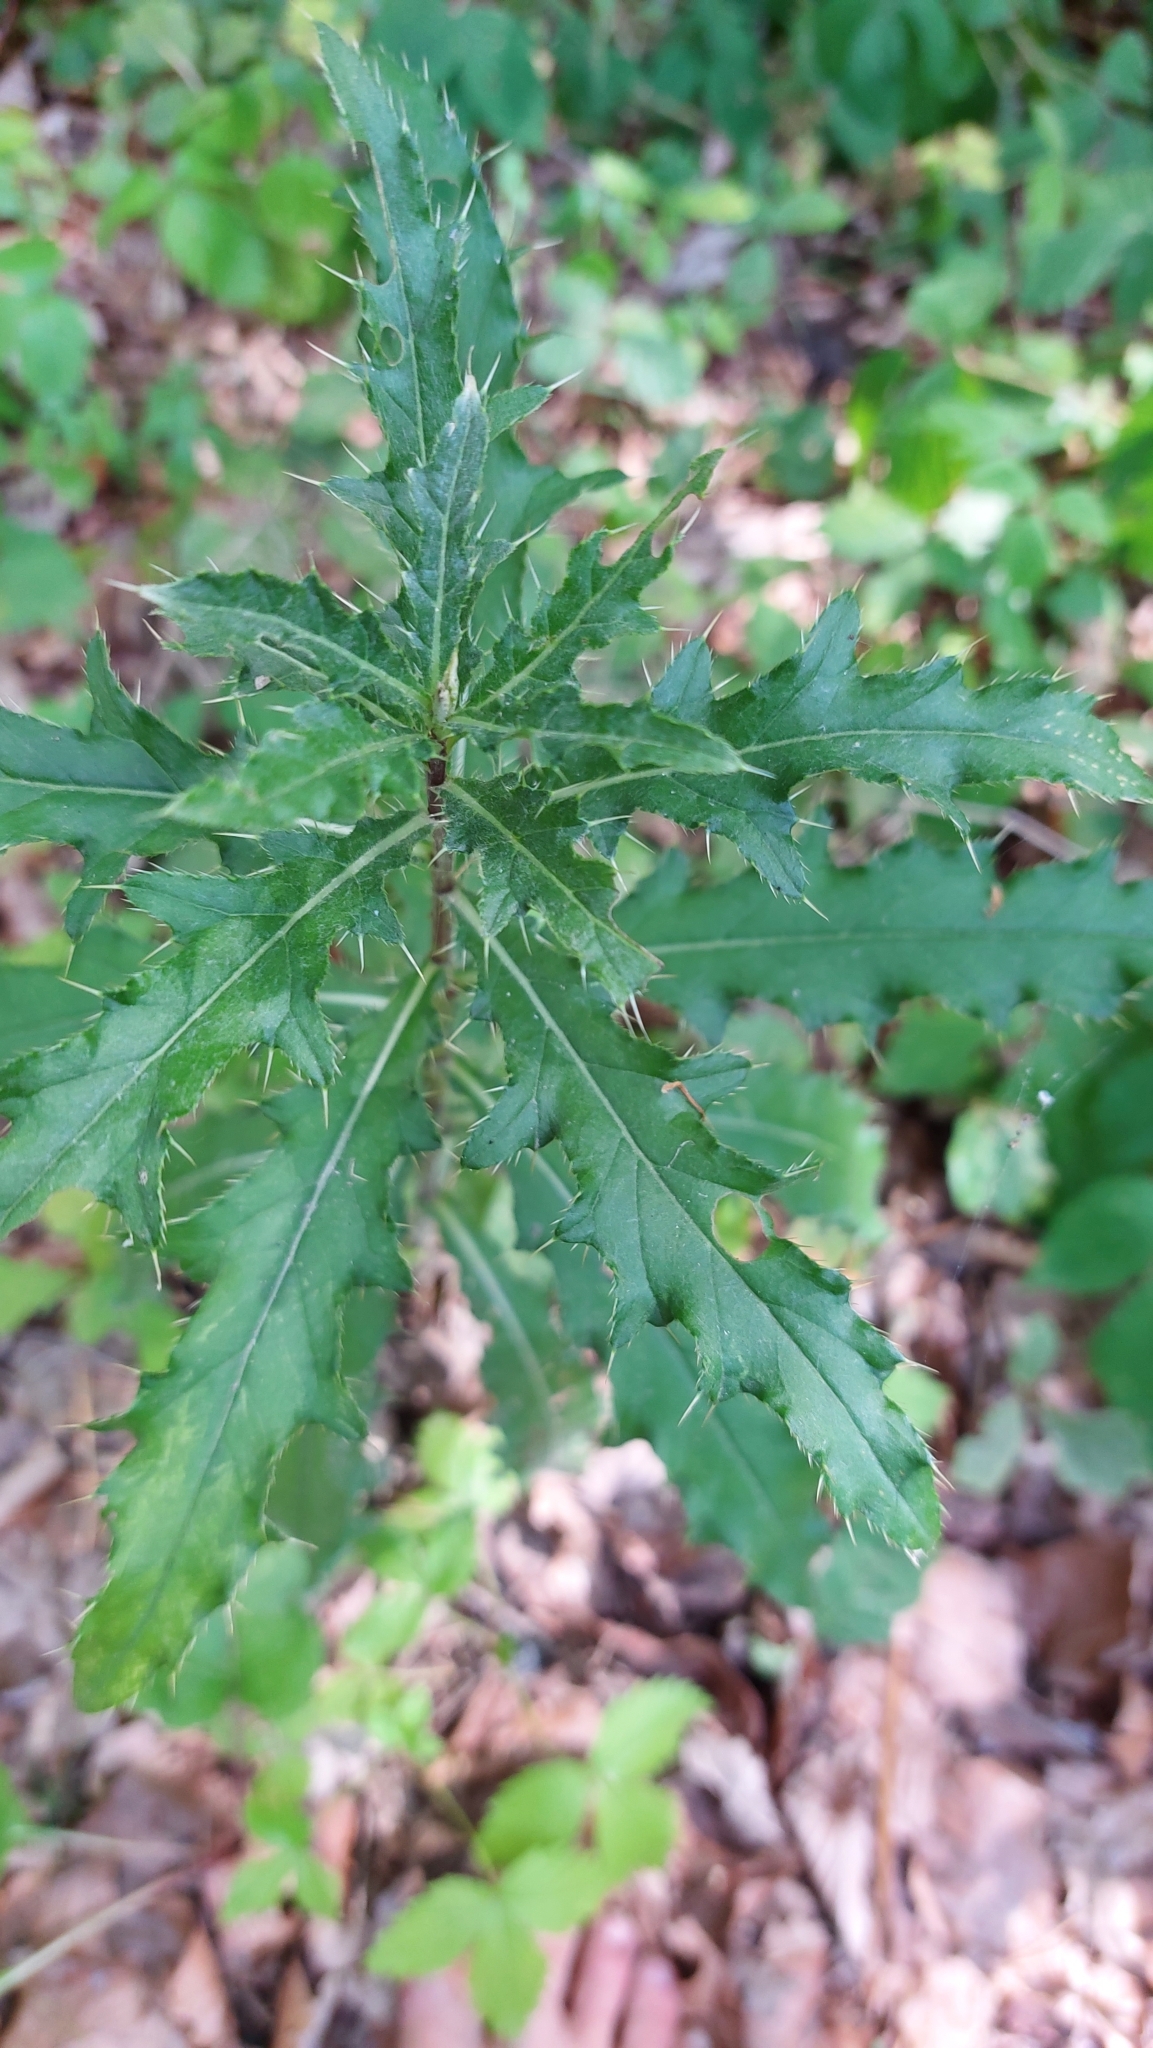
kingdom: Plantae
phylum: Tracheophyta
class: Magnoliopsida
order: Asterales
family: Asteraceae
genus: Cirsium
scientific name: Cirsium arvense
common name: Creeping thistle
